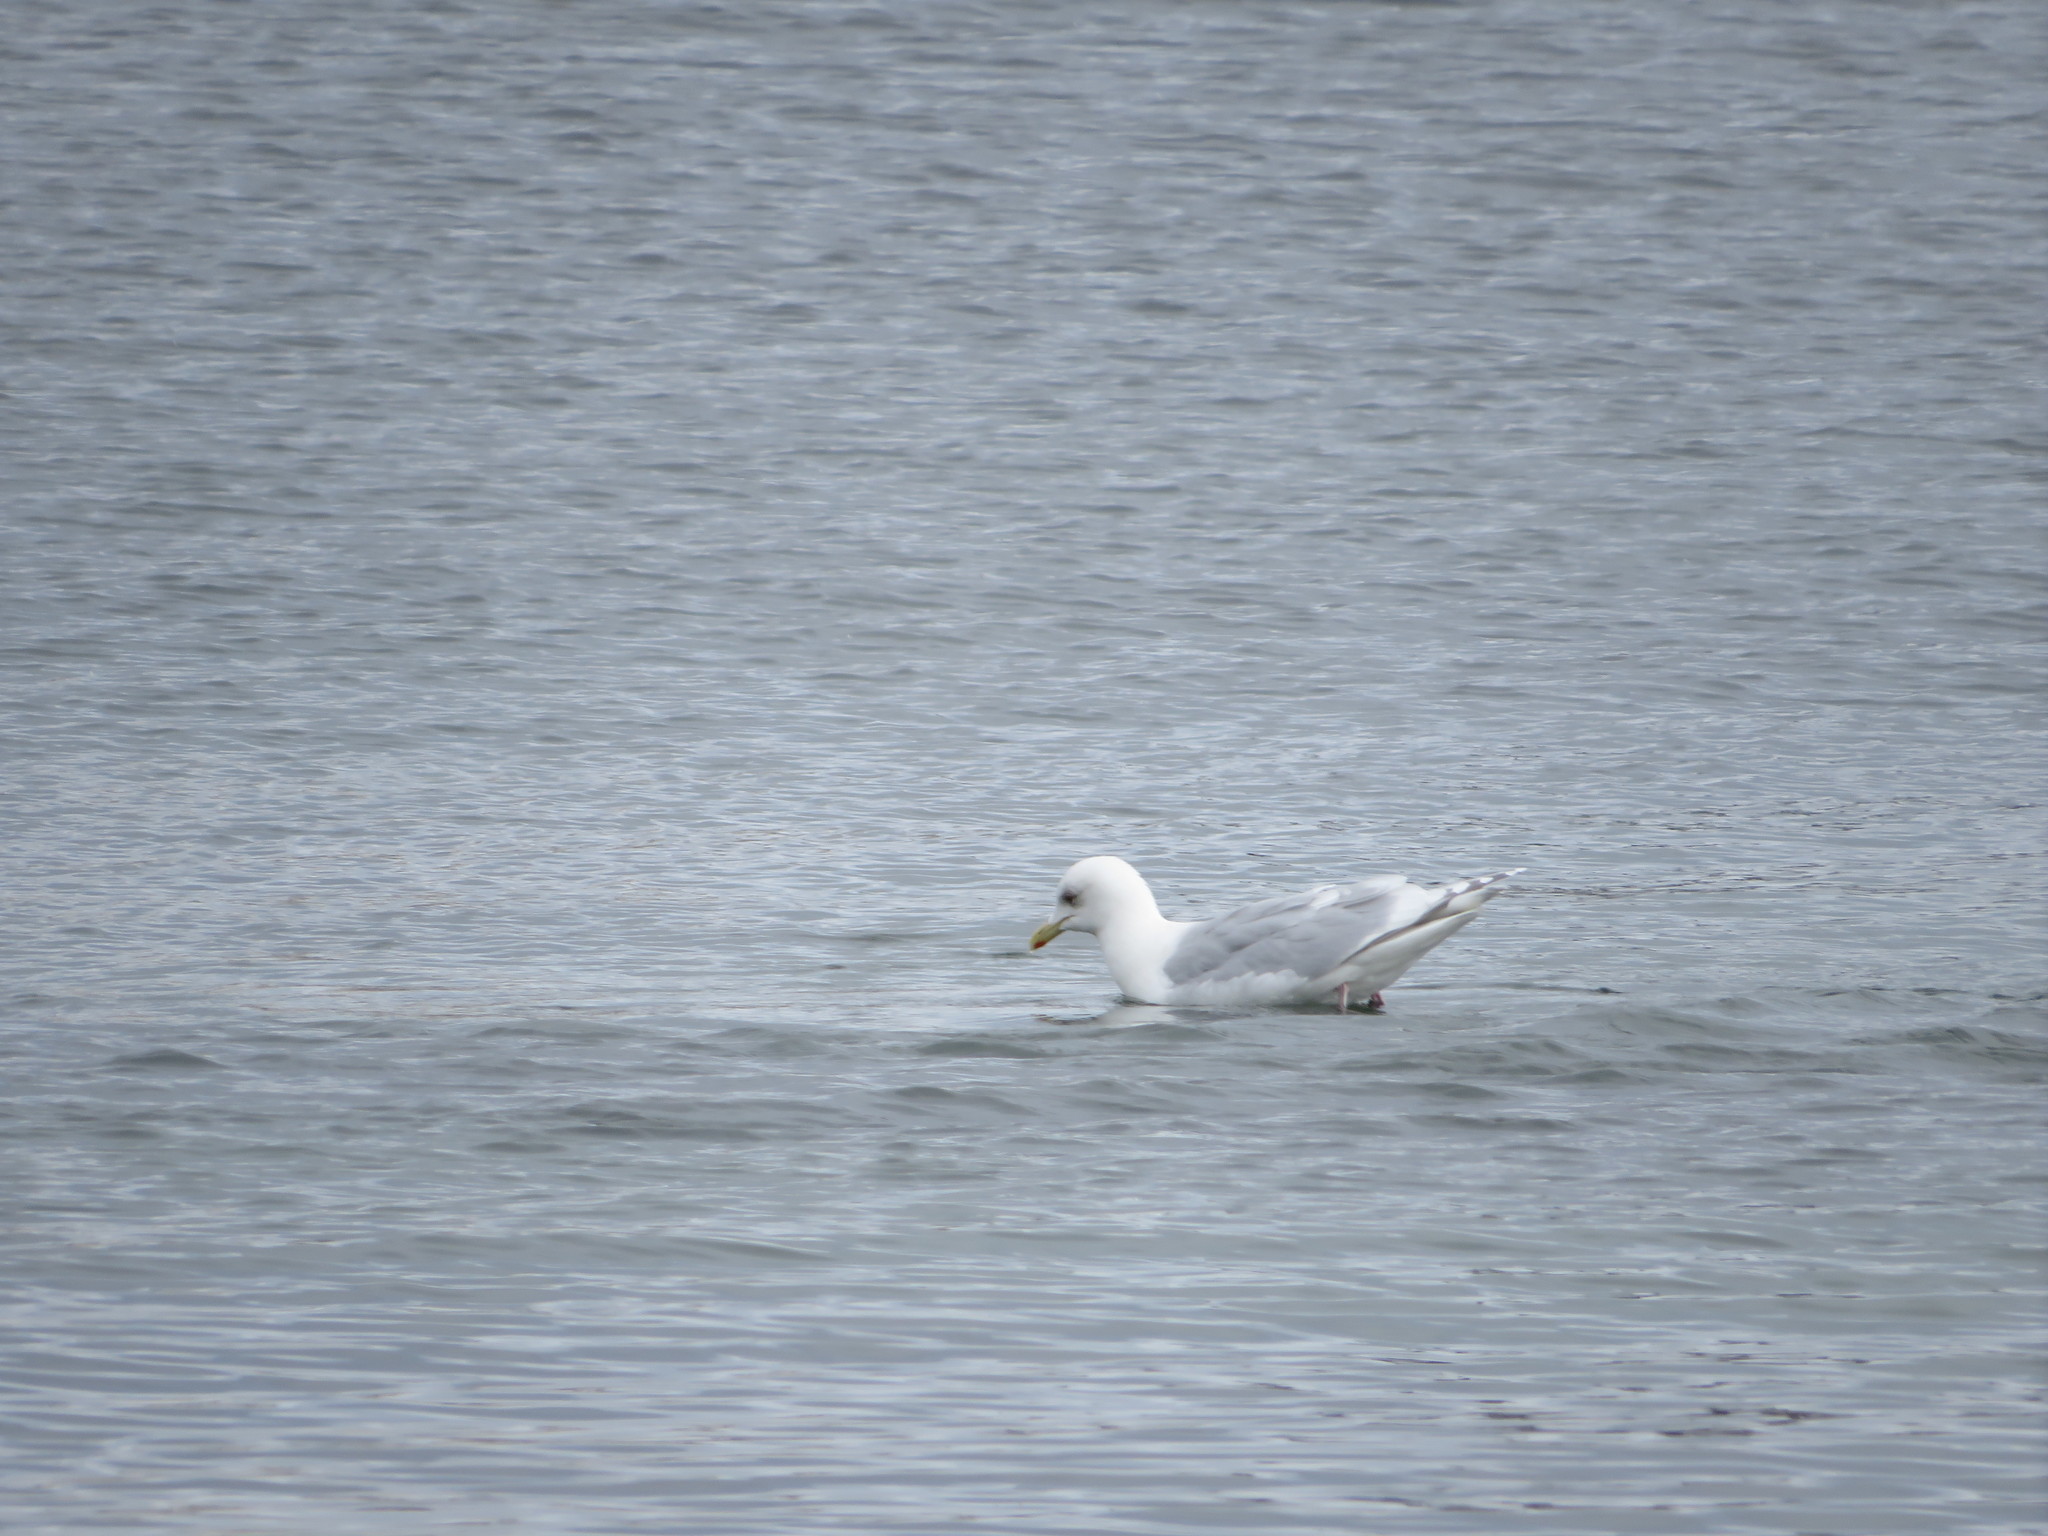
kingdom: Animalia
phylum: Chordata
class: Aves
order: Charadriiformes
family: Laridae
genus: Larus
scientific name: Larus glaucoides
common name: Iceland gull
